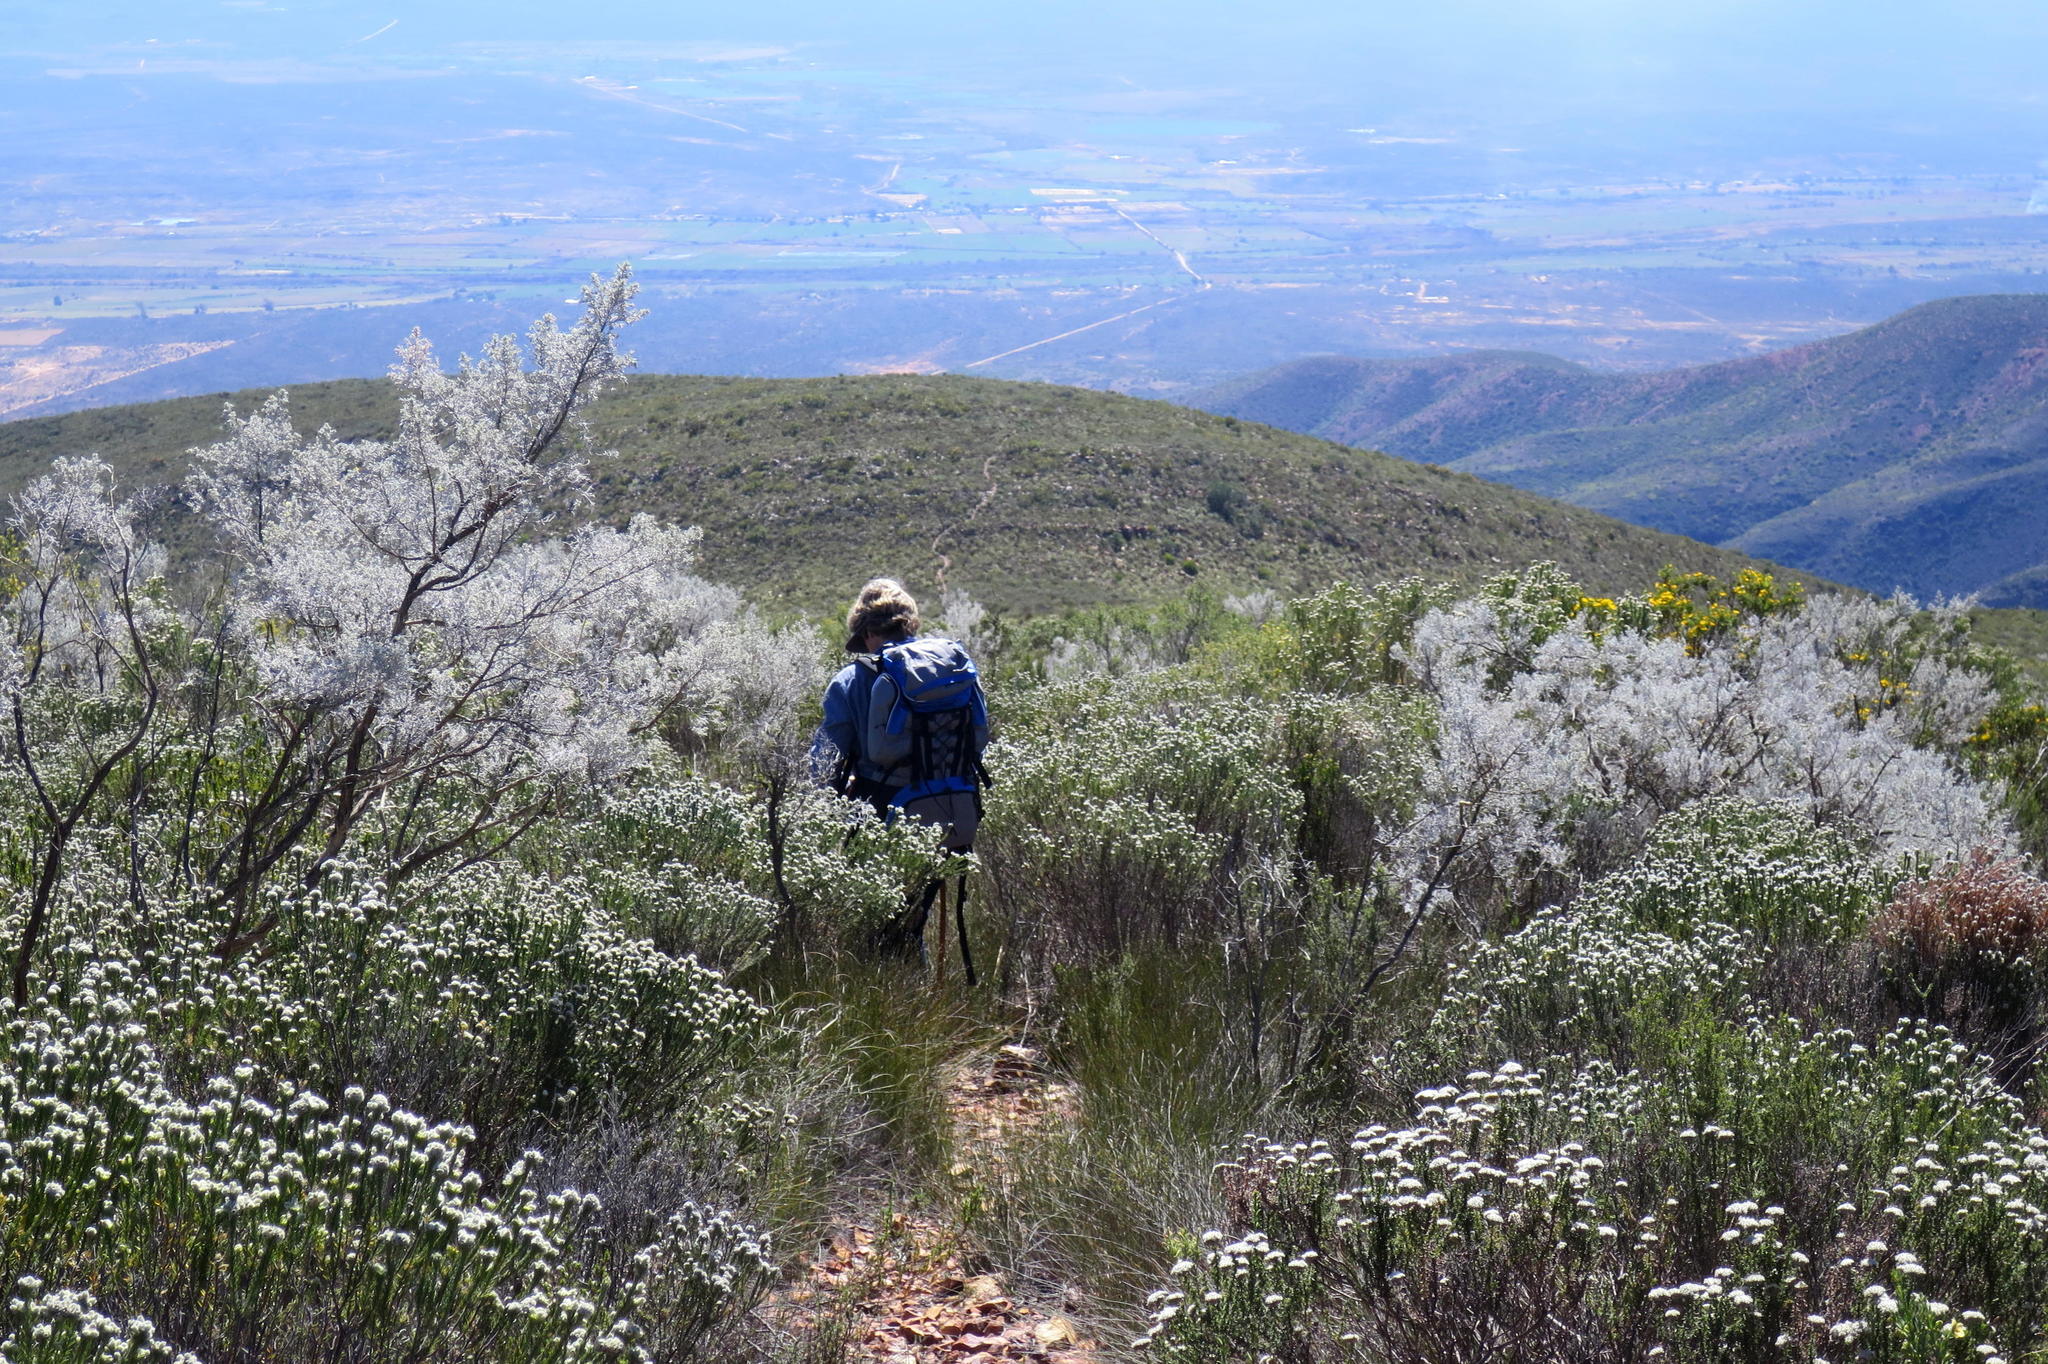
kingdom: Plantae
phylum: Tracheophyta
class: Magnoliopsida
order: Fabales
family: Fabaceae
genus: Aspalathus
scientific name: Aspalathus pedunculata
